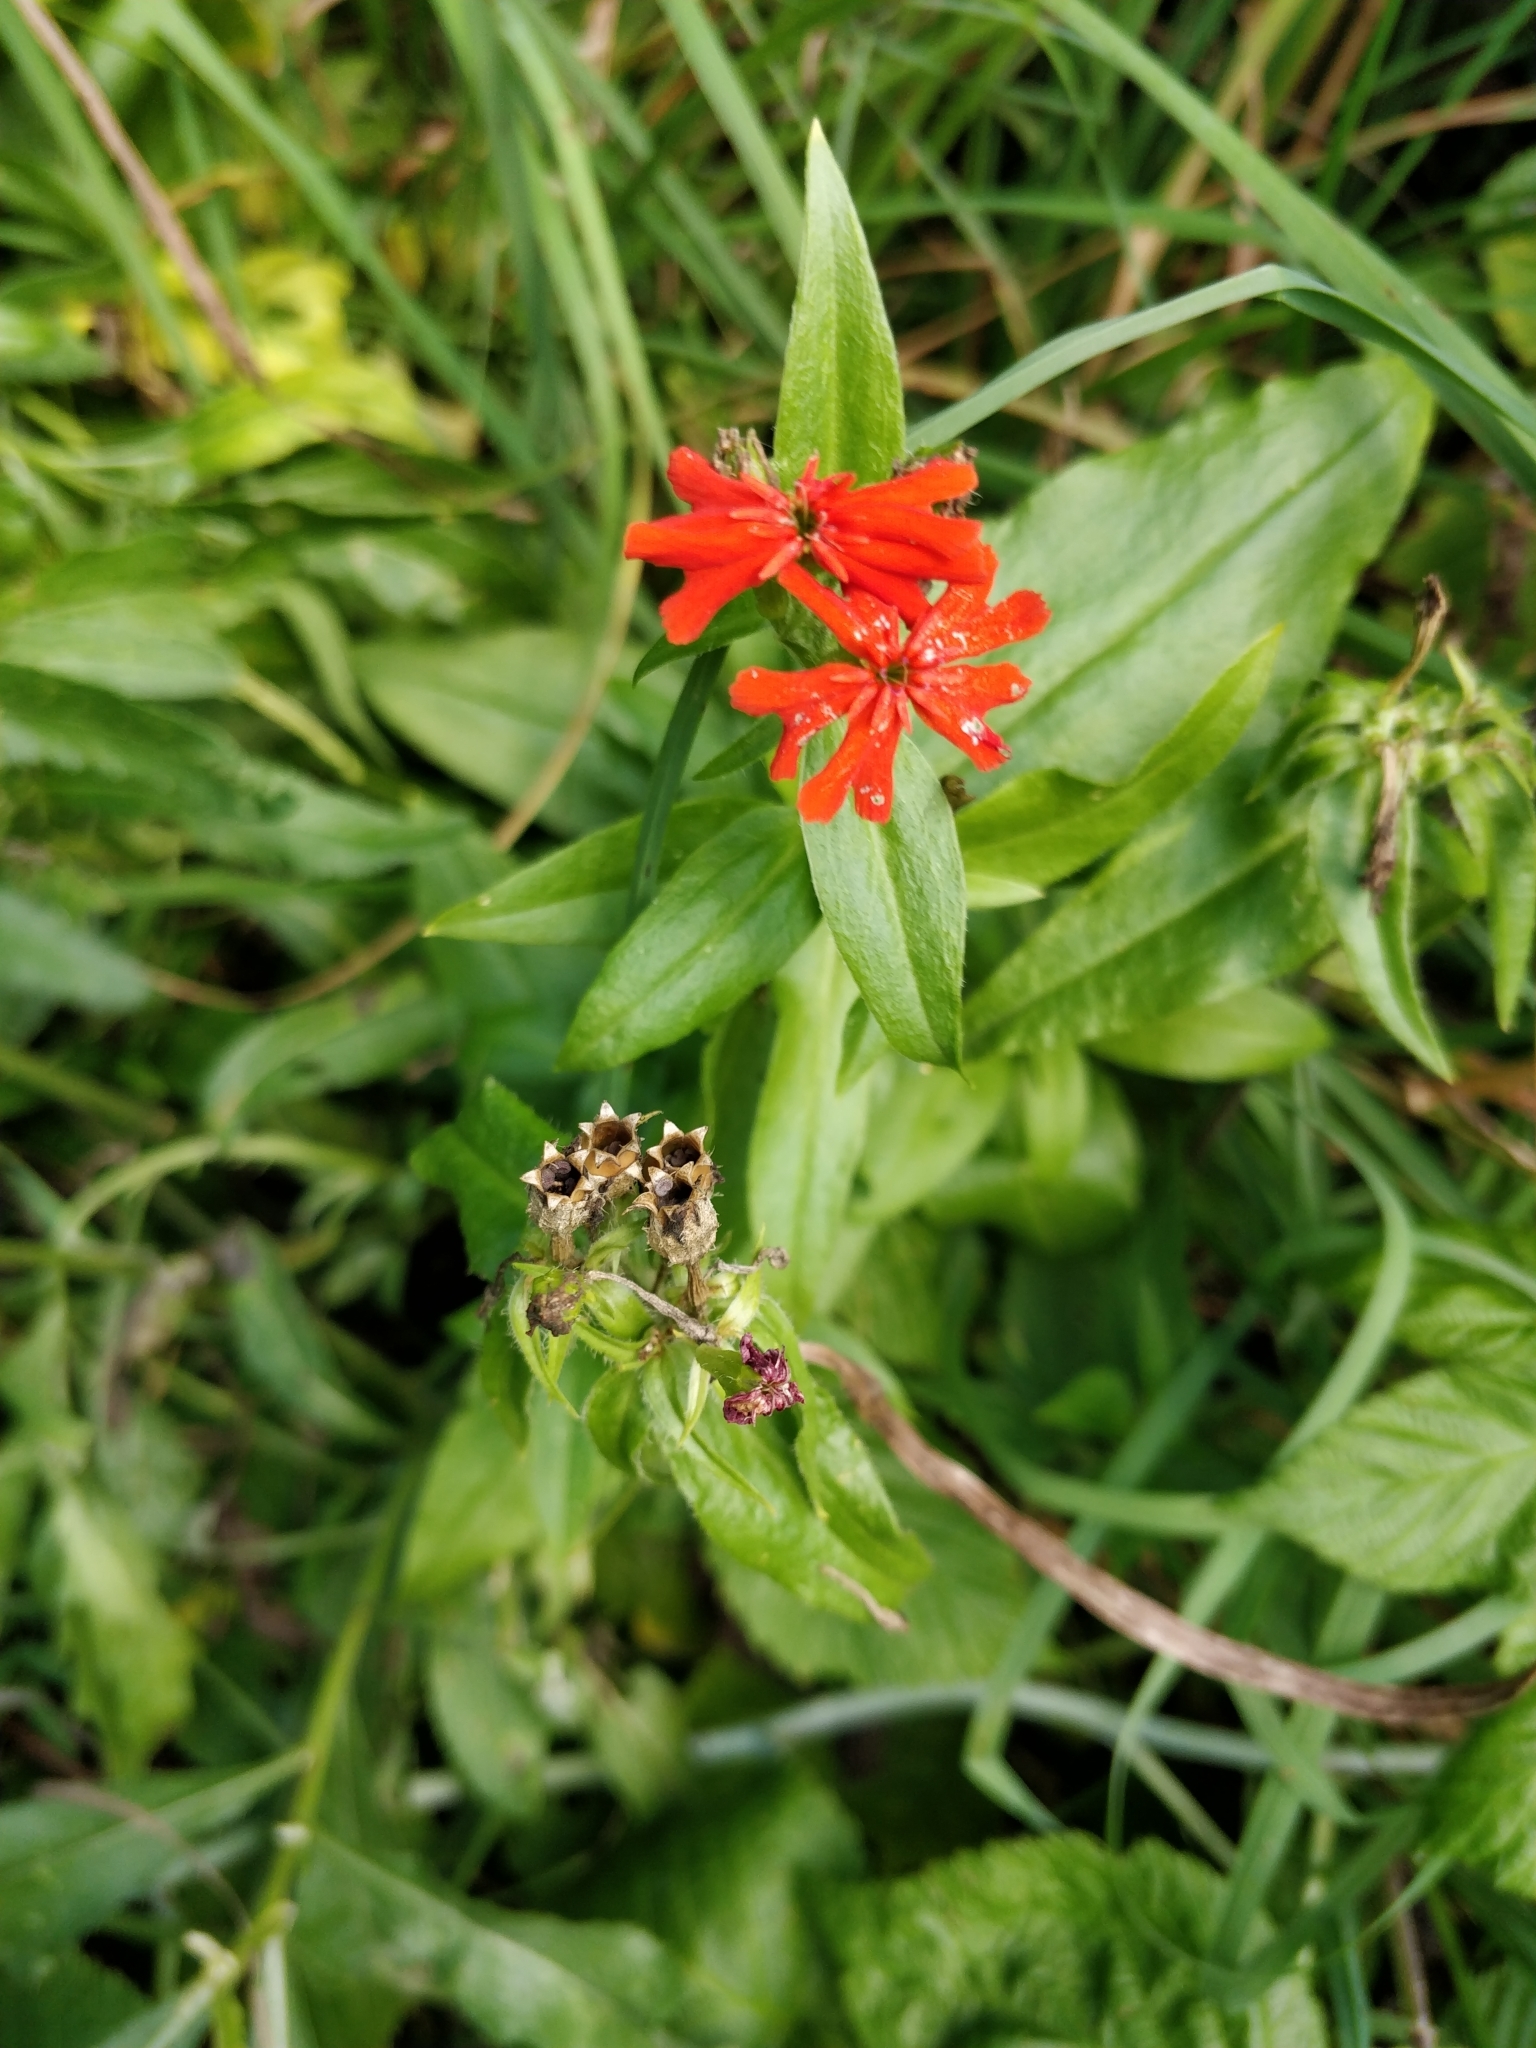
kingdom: Plantae
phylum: Tracheophyta
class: Magnoliopsida
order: Caryophyllales
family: Caryophyllaceae
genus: Silene
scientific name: Silene chalcedonica
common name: Maltese-cross
